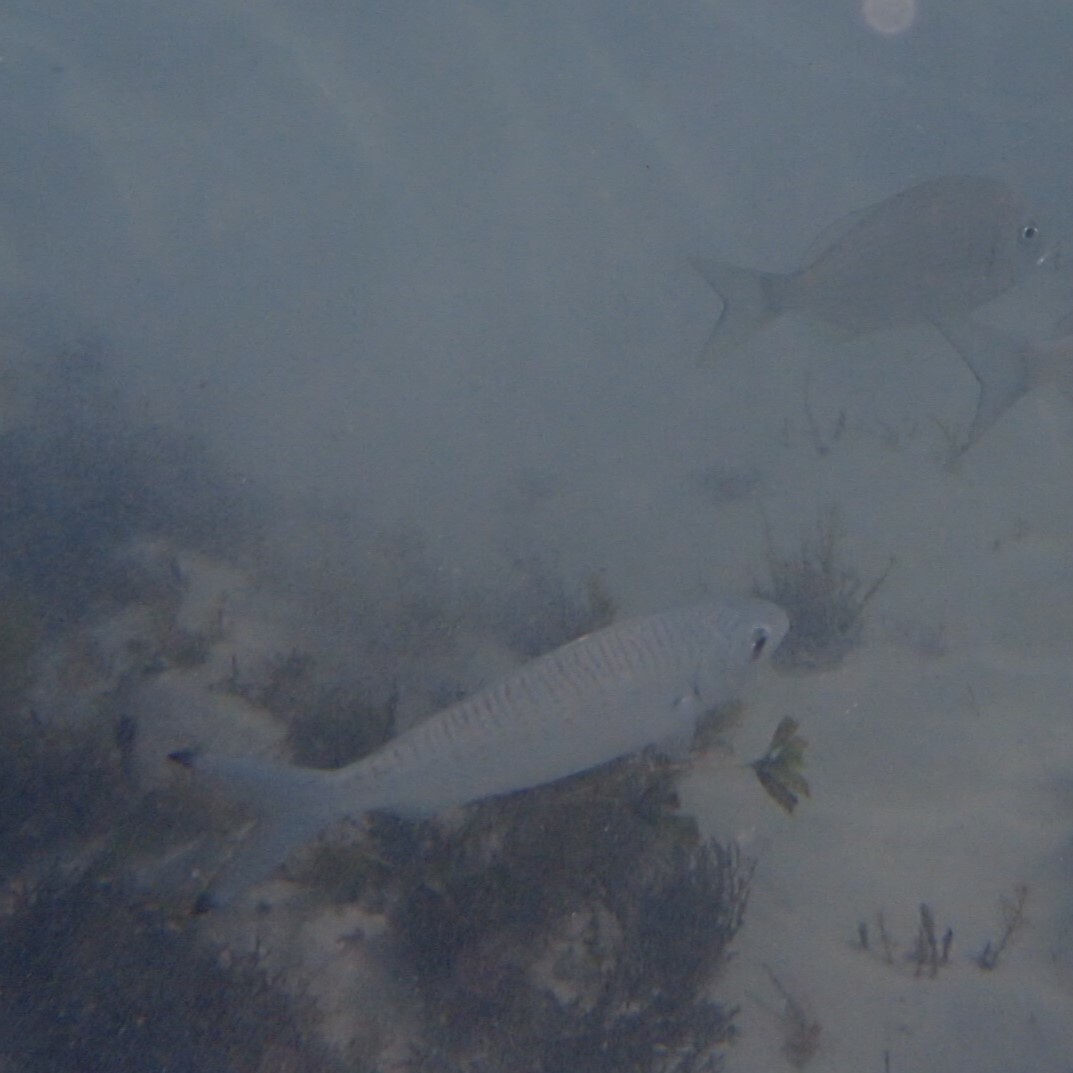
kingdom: Animalia
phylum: Chordata
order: Perciformes
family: Arripidae
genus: Arripis
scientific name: Arripis georgianus
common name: Australian herring
